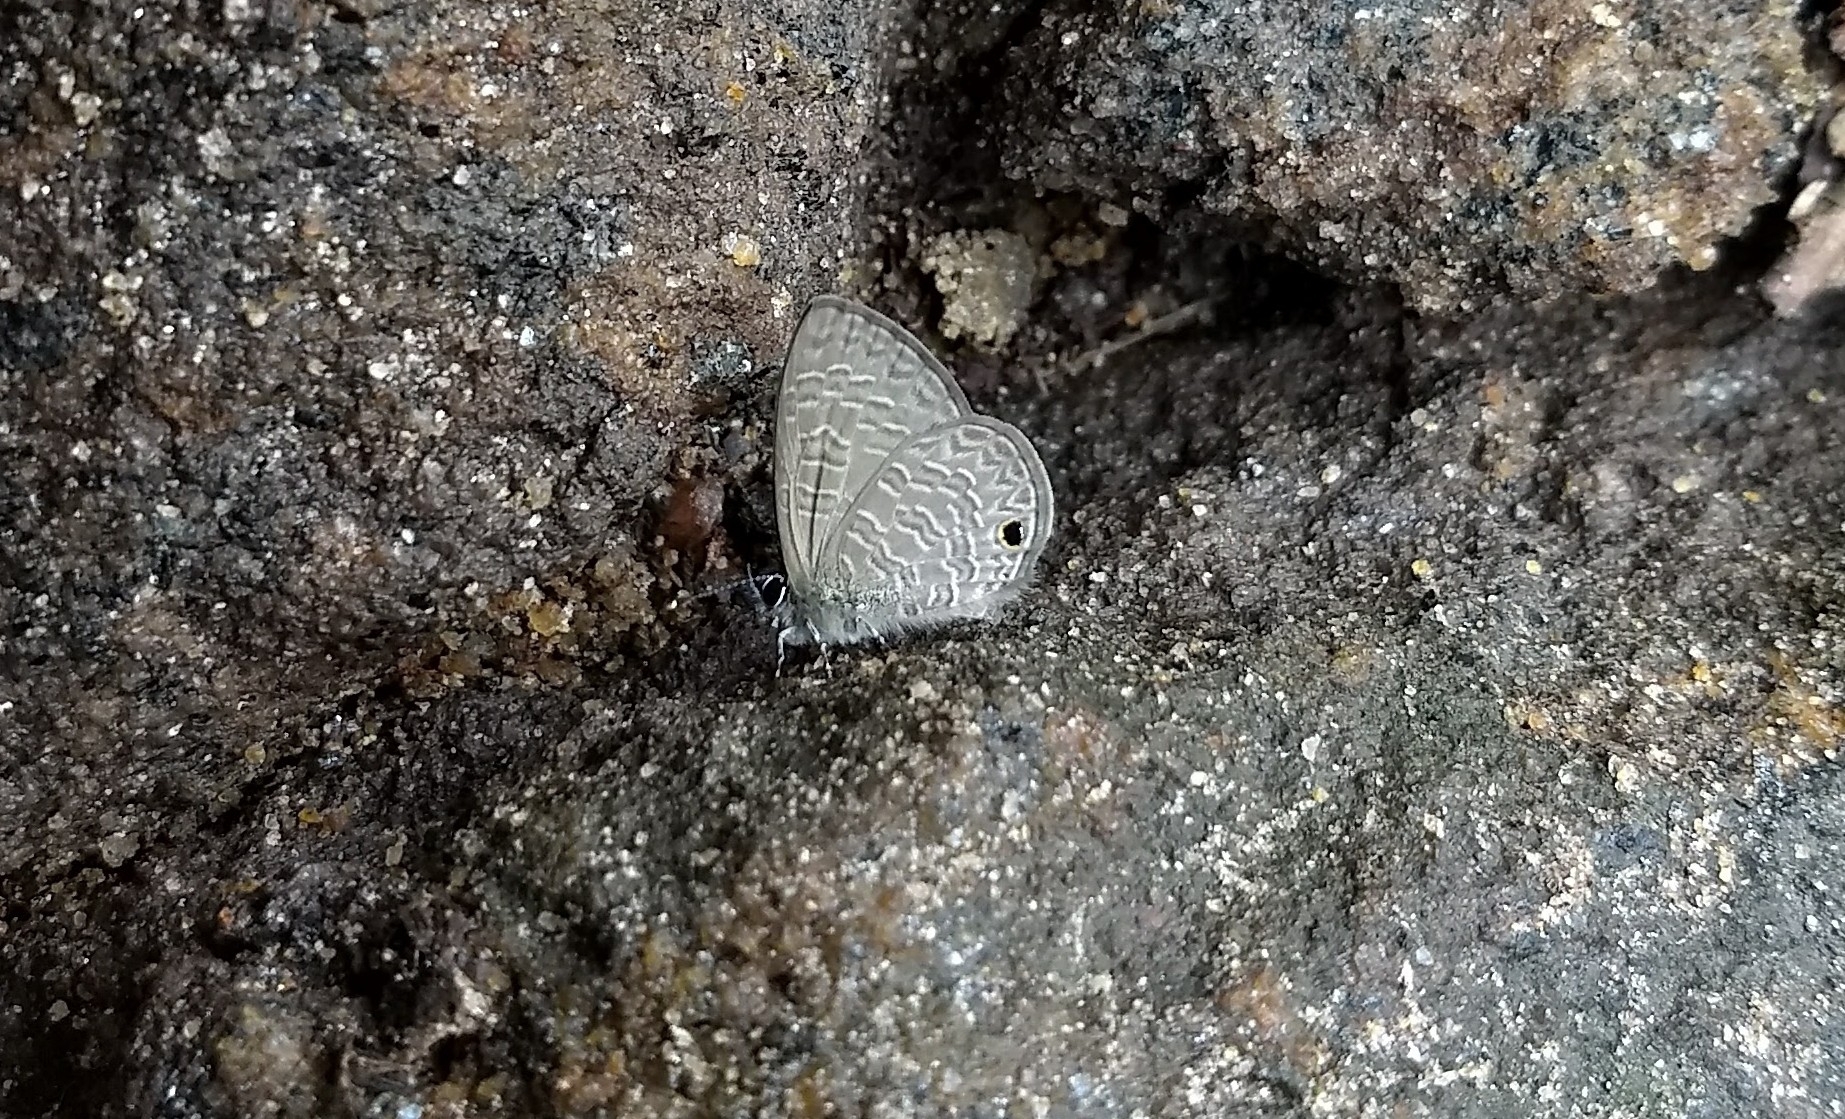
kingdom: Animalia
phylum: Arthropoda
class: Insecta
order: Lepidoptera
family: Lycaenidae
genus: Prosotas
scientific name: Prosotas dubiosa
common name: Tailless lineblue
